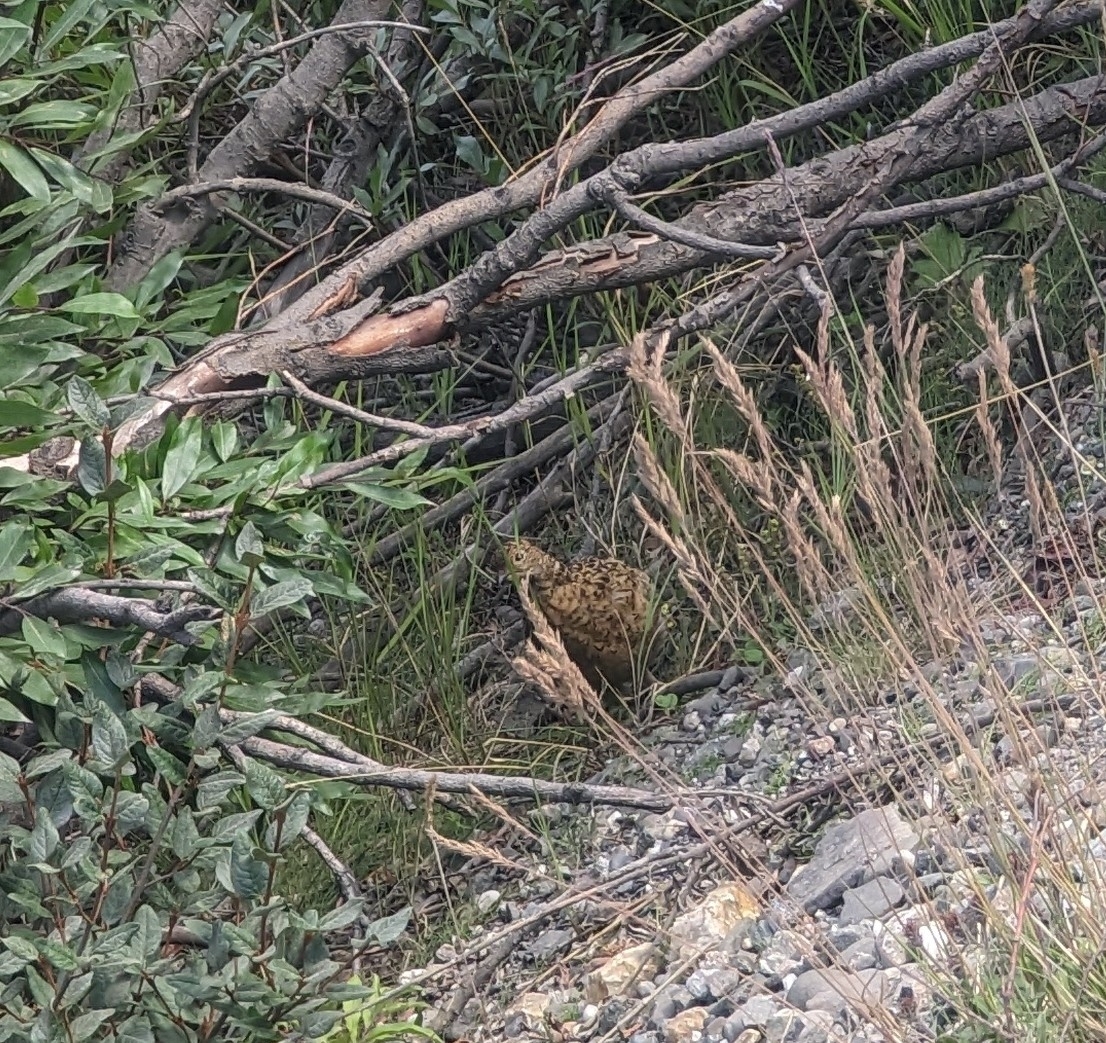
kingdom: Animalia
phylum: Chordata
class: Aves
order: Galliformes
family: Phasianidae
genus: Lagopus
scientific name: Lagopus lagopus
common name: Willow ptarmigan
